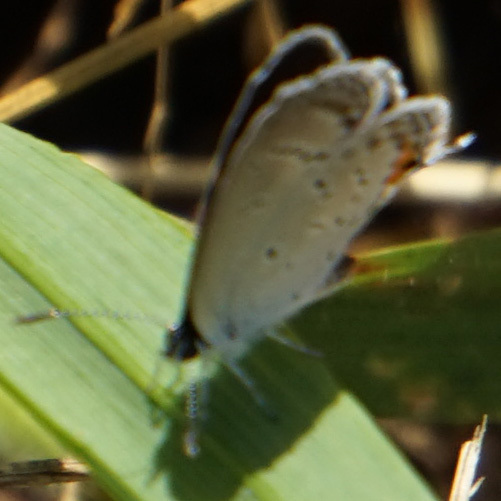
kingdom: Animalia
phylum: Arthropoda
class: Insecta
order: Lepidoptera
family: Lycaenidae
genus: Elkalyce
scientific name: Elkalyce comyntas
